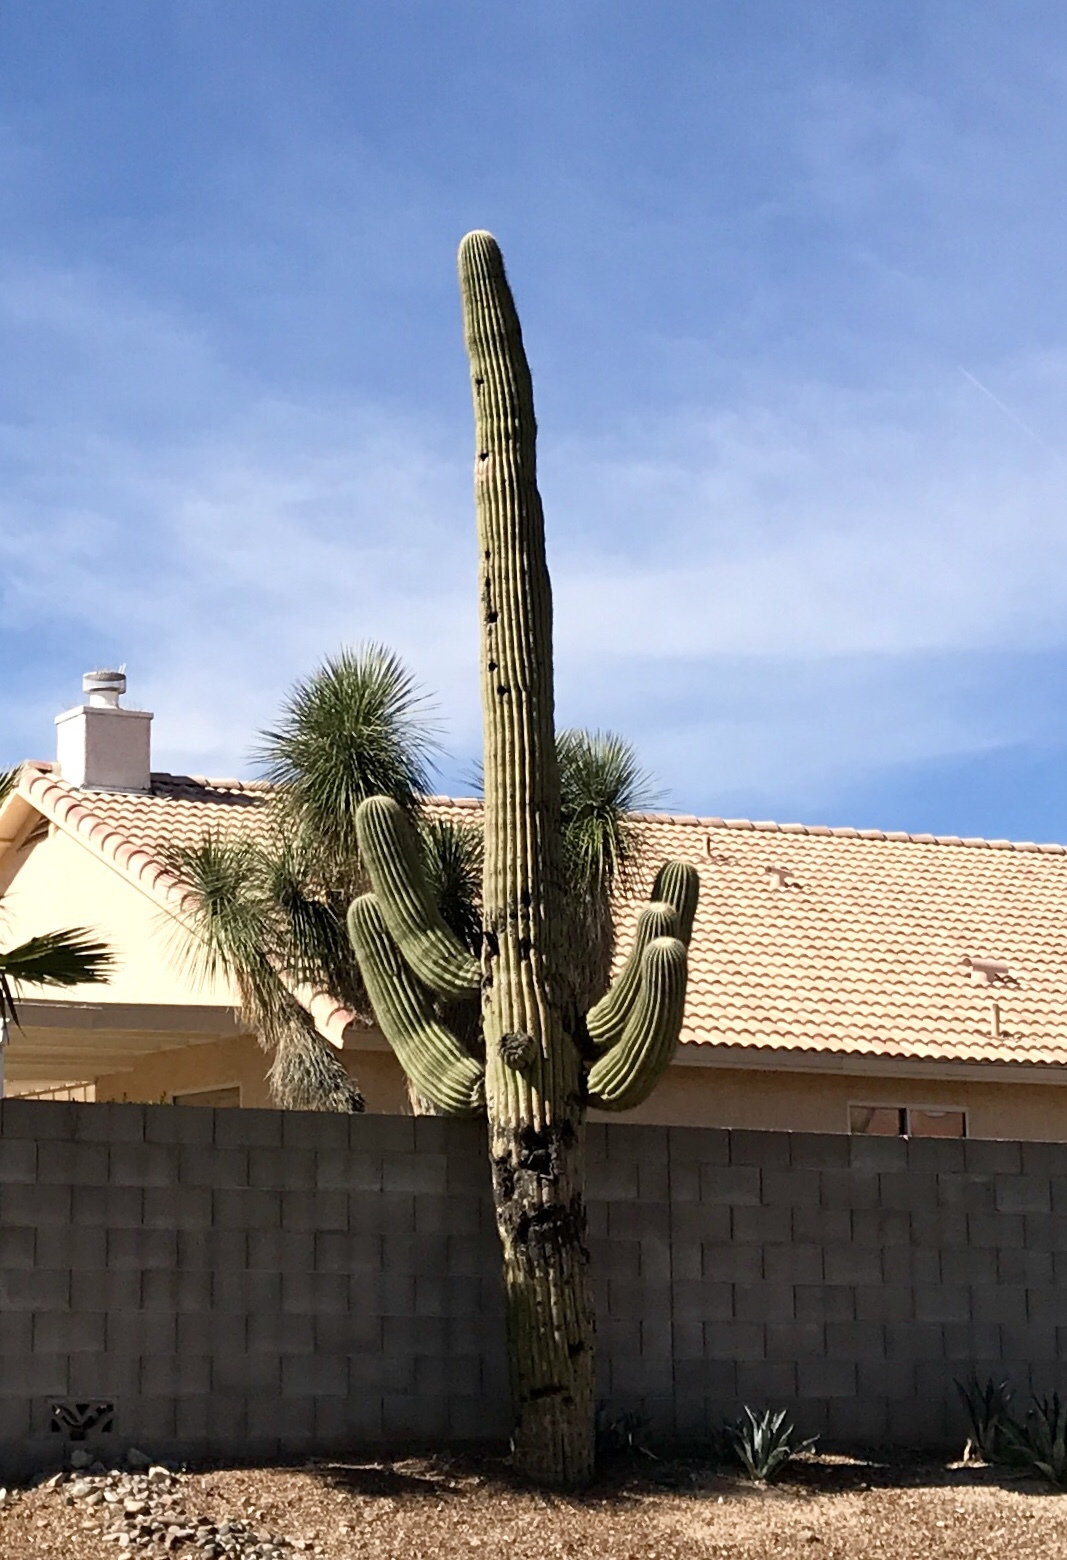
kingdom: Plantae
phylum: Tracheophyta
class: Magnoliopsida
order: Caryophyllales
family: Cactaceae
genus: Carnegiea
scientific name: Carnegiea gigantea
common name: Saguaro
